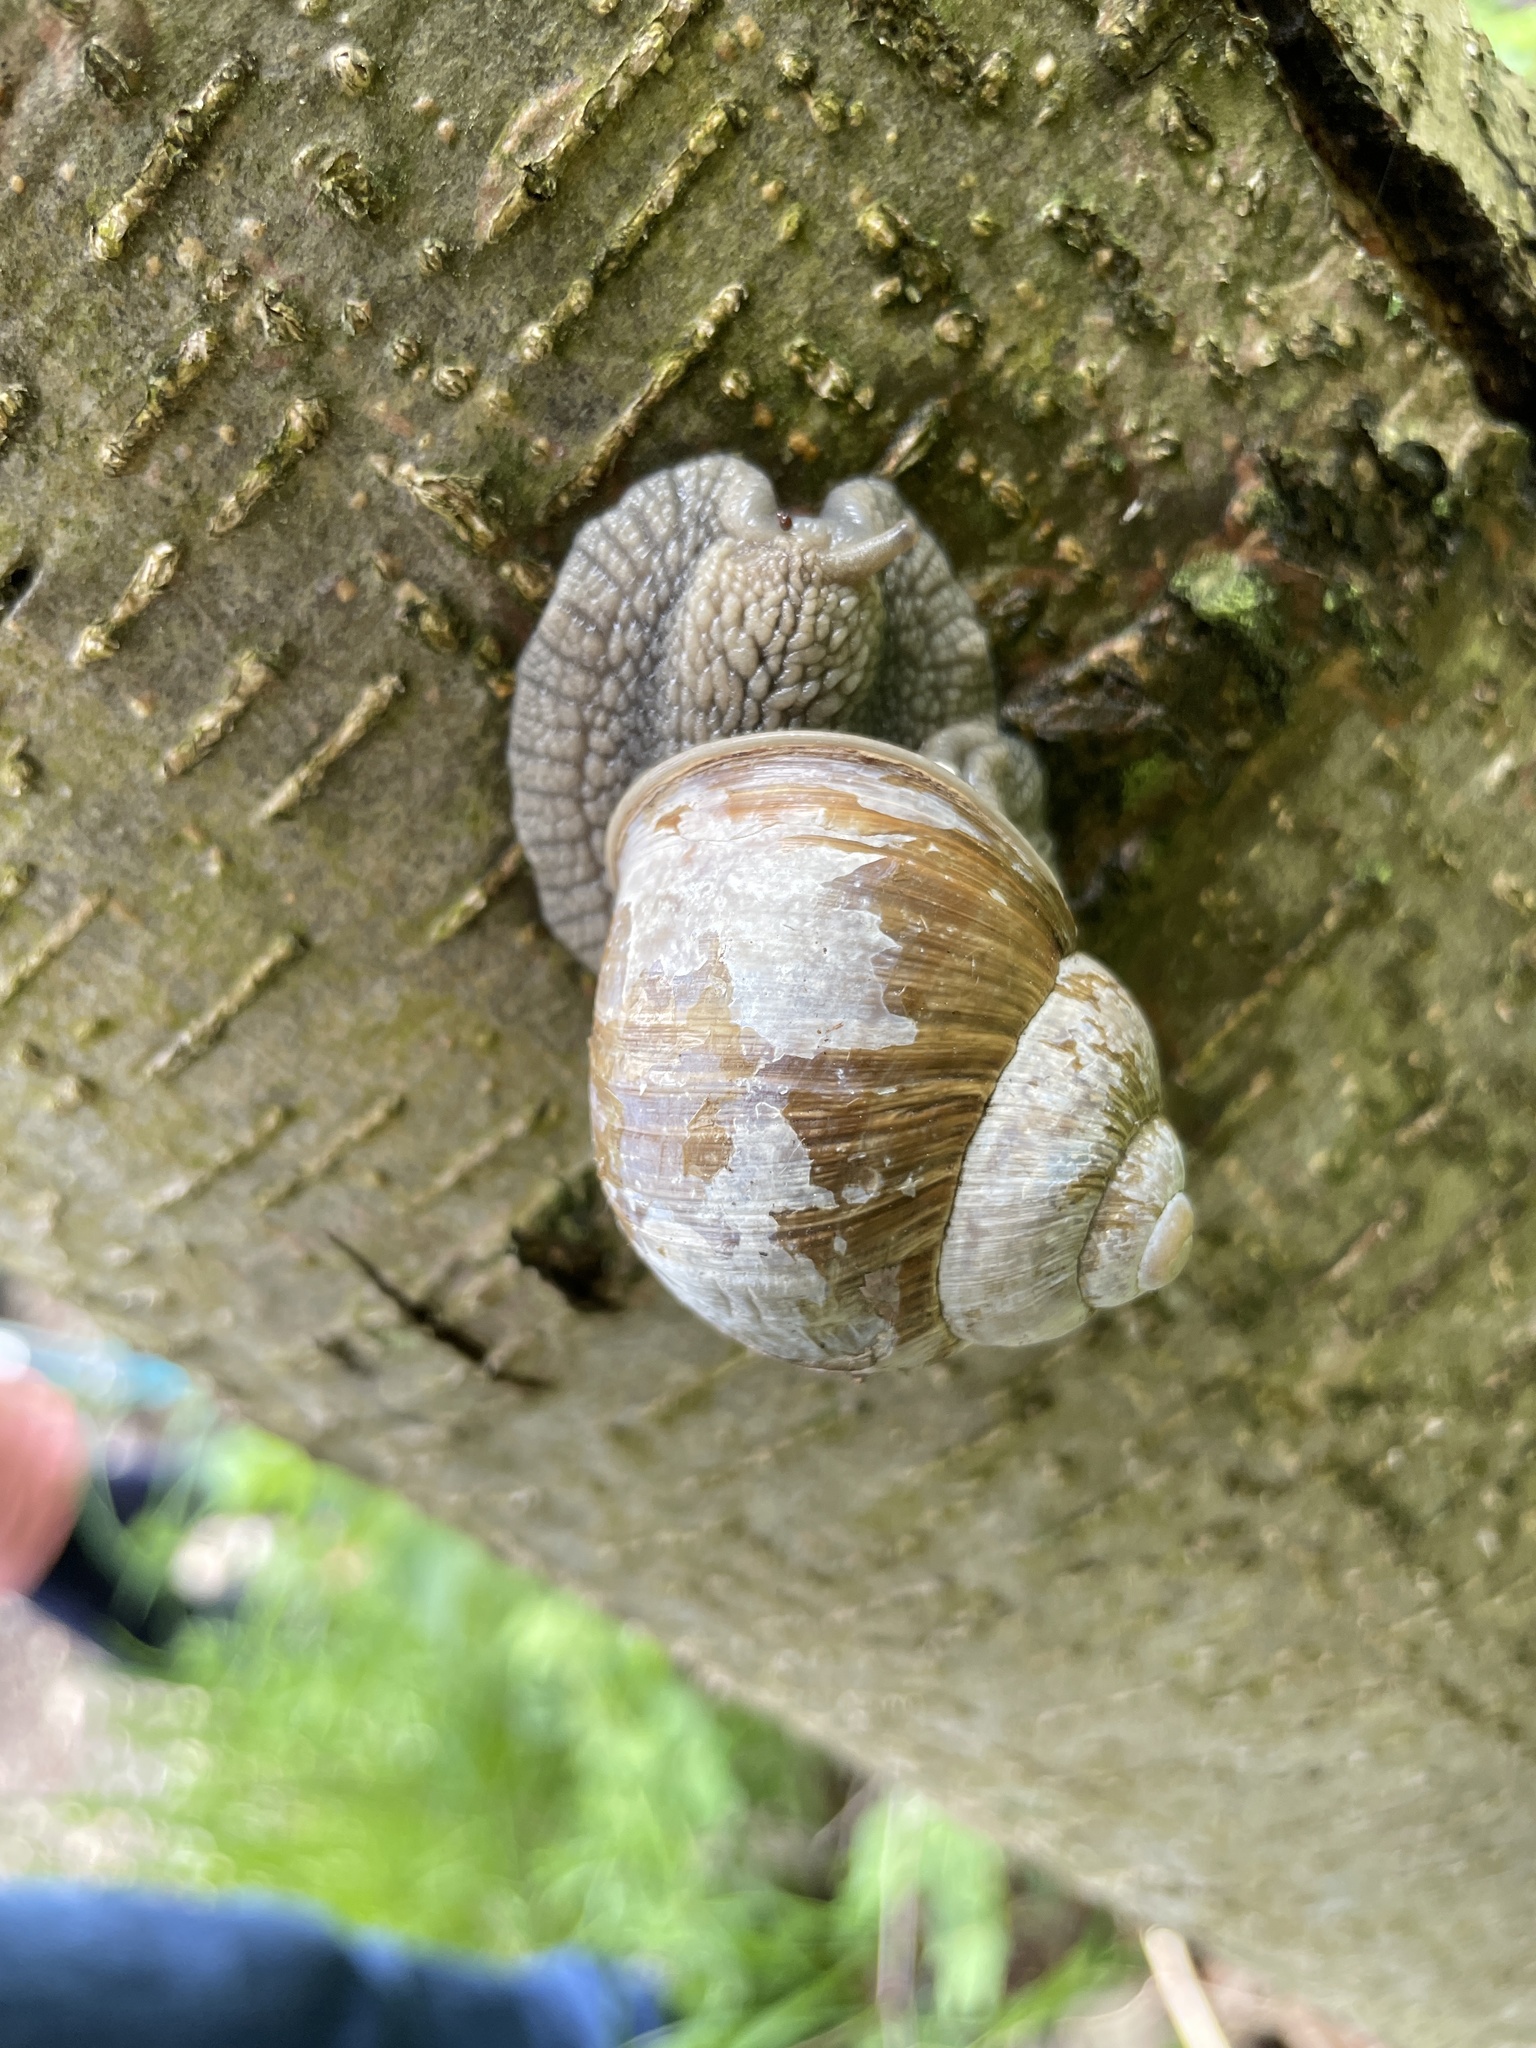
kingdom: Animalia
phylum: Mollusca
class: Gastropoda
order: Stylommatophora
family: Helicidae
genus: Helix
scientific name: Helix pomatia
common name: Roman snail
